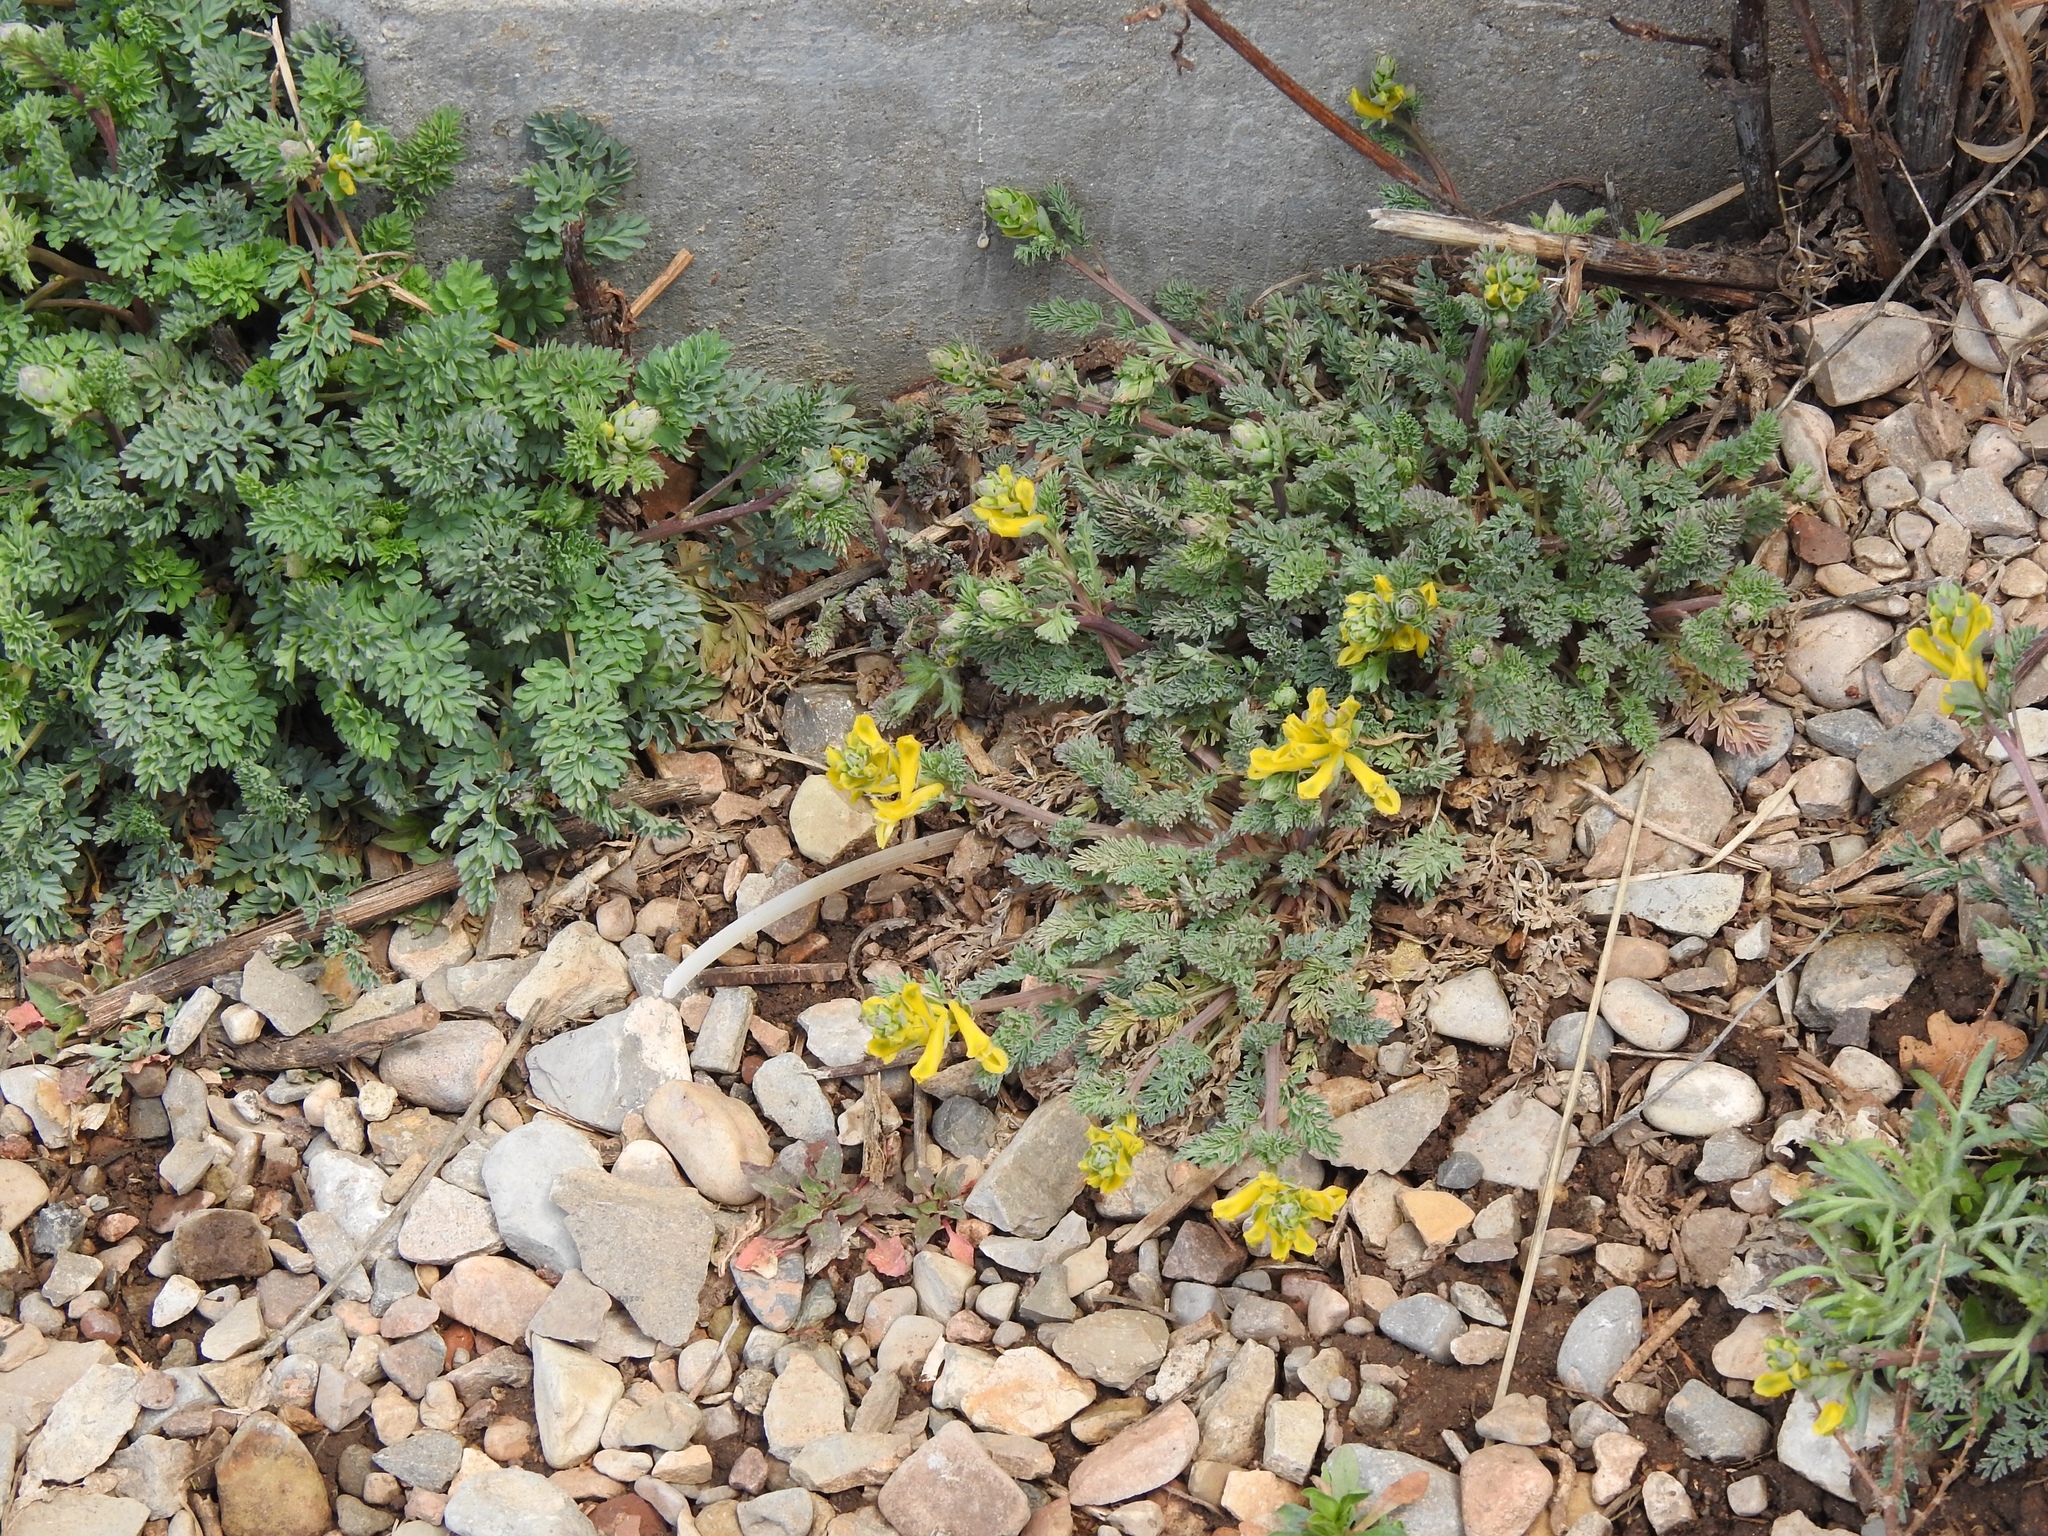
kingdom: Plantae
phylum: Tracheophyta
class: Magnoliopsida
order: Ranunculales
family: Papaveraceae
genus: Corydalis
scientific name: Corydalis aurea
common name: Golden corydalis
